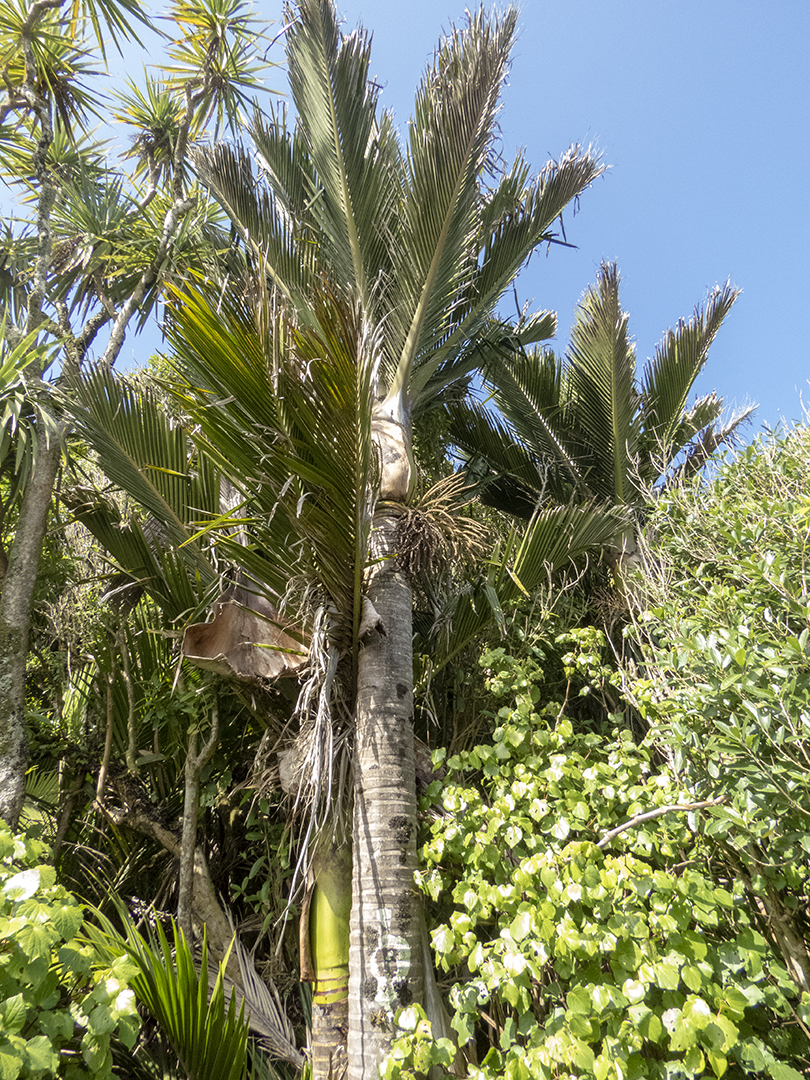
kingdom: Plantae
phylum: Tracheophyta
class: Liliopsida
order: Arecales
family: Arecaceae
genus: Rhopalostylis
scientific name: Rhopalostylis sapida
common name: Feather-duster palm
